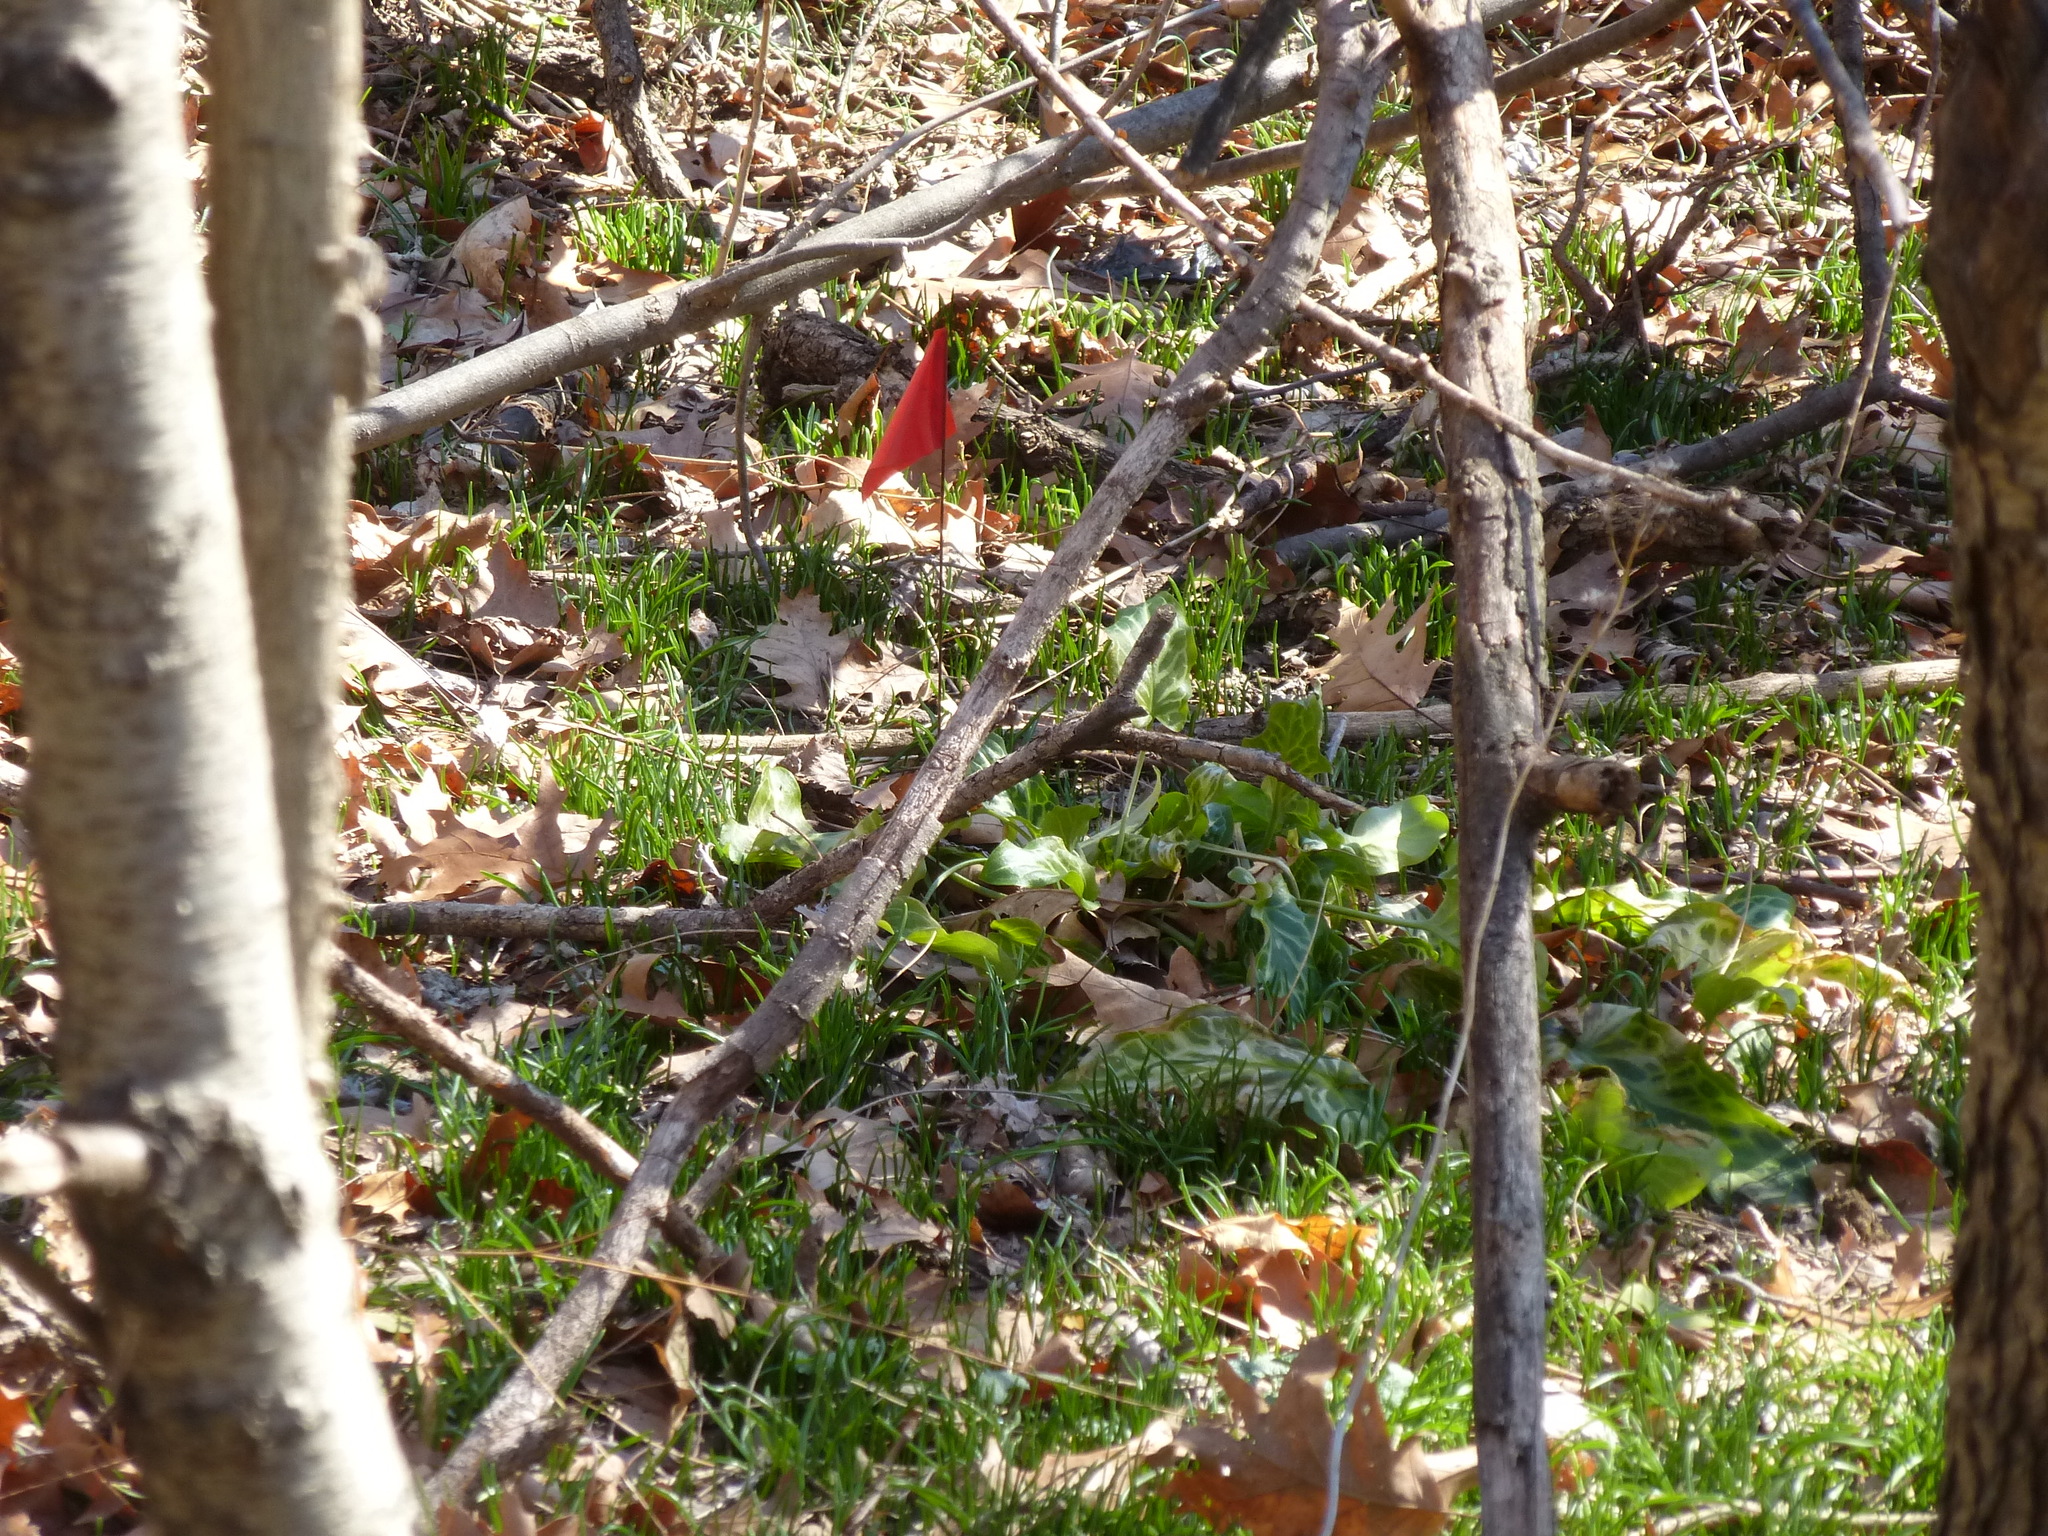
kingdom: Plantae
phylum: Tracheophyta
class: Liliopsida
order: Alismatales
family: Araceae
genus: Arum
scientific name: Arum italicum
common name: Italian lords-and-ladies
